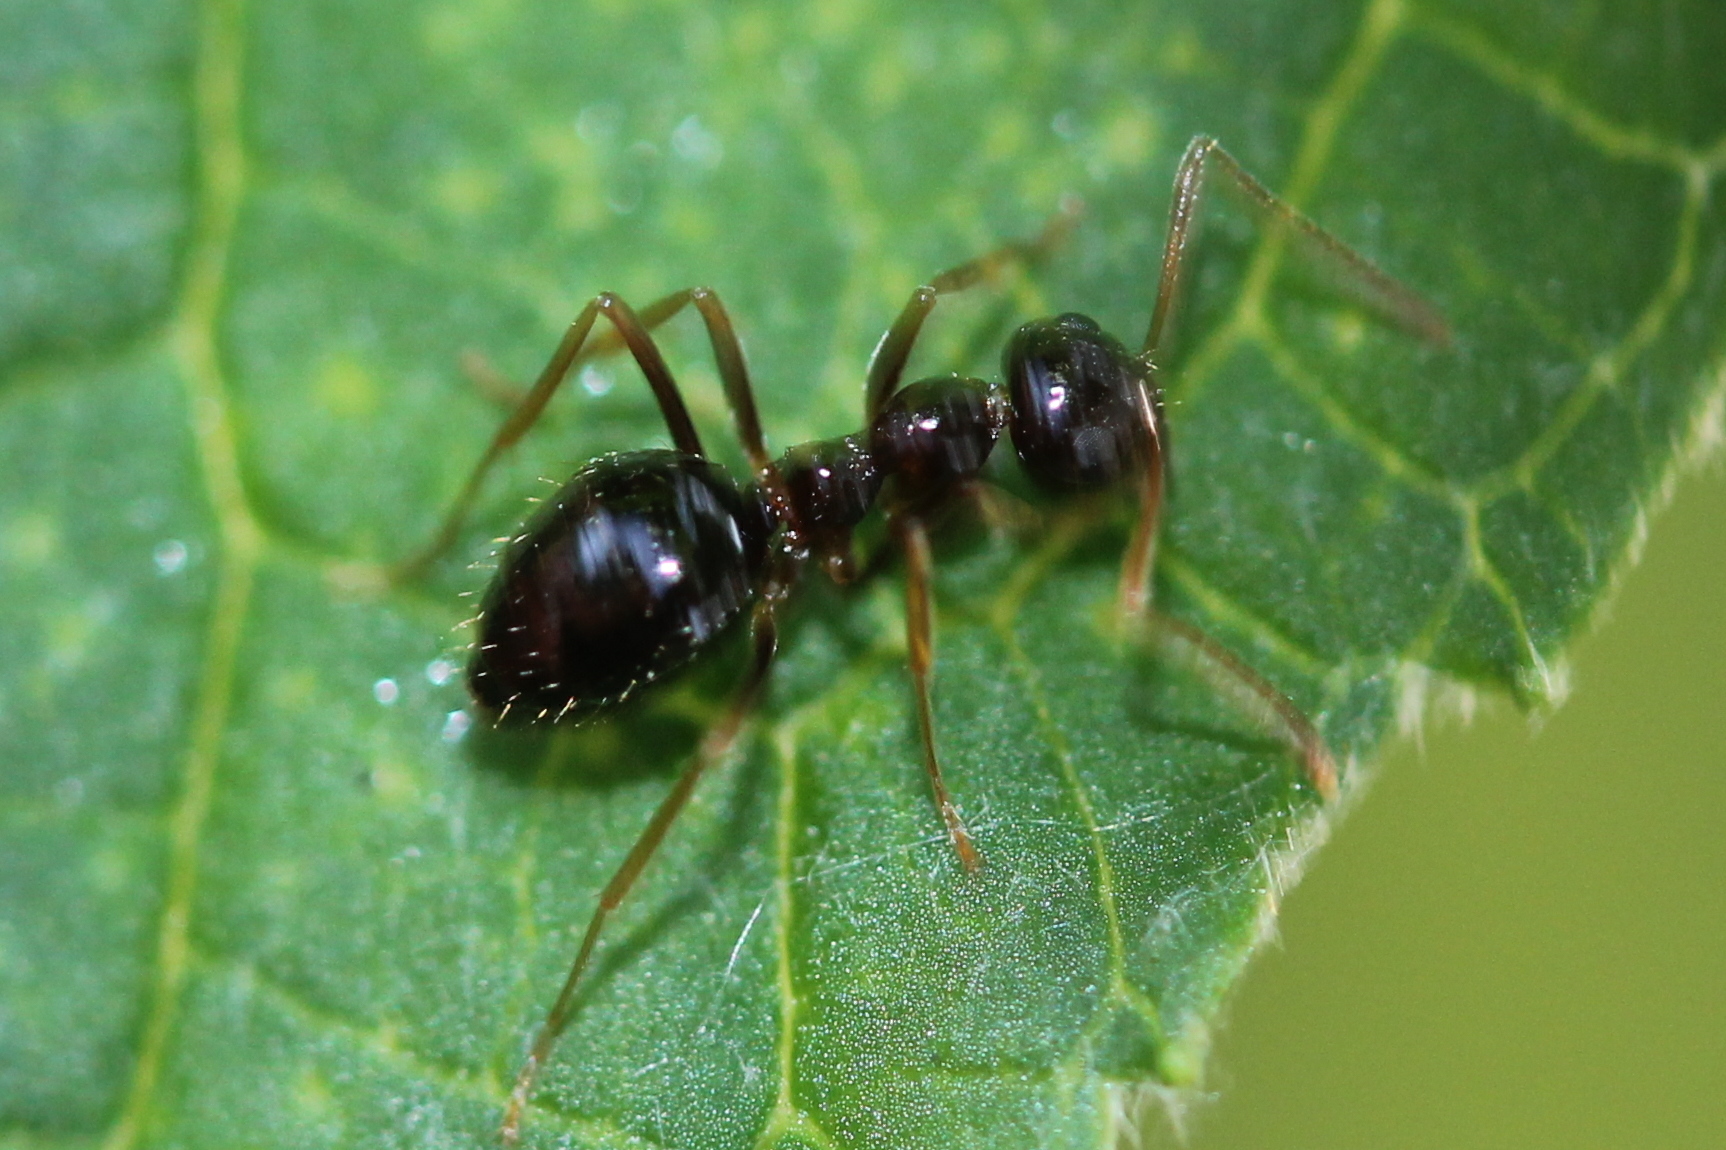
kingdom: Animalia
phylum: Arthropoda
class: Insecta
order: Hymenoptera
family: Formicidae
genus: Prenolepis
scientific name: Prenolepis imparis
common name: Small honey ant
